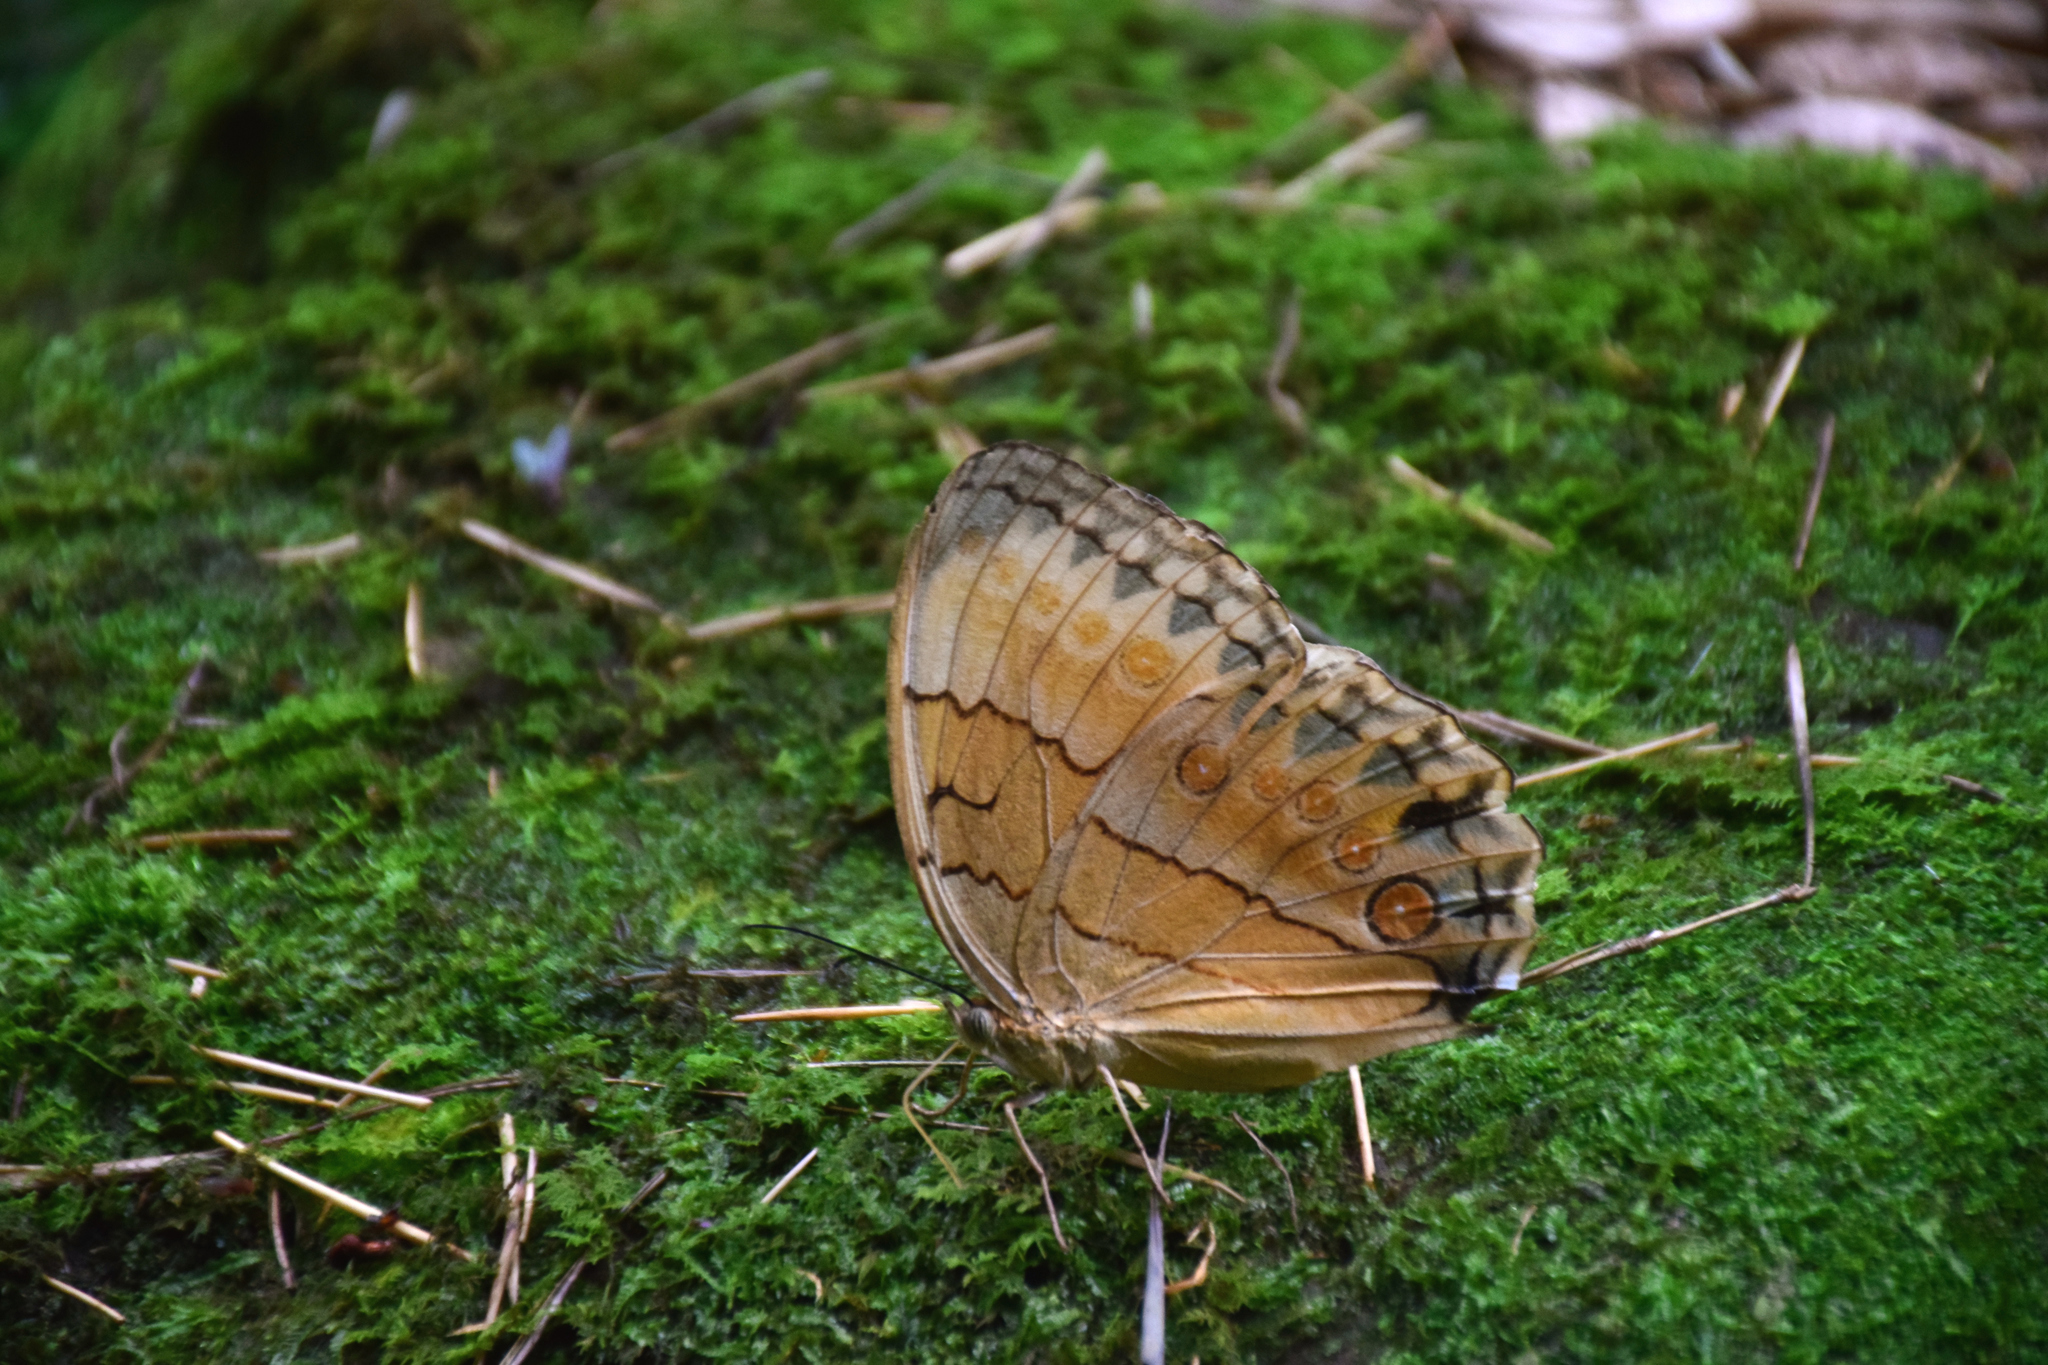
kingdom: Animalia
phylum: Arthropoda
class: Insecta
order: Lepidoptera
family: Nymphalidae
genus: Stichophthalma
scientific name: Stichophthalma howqua
